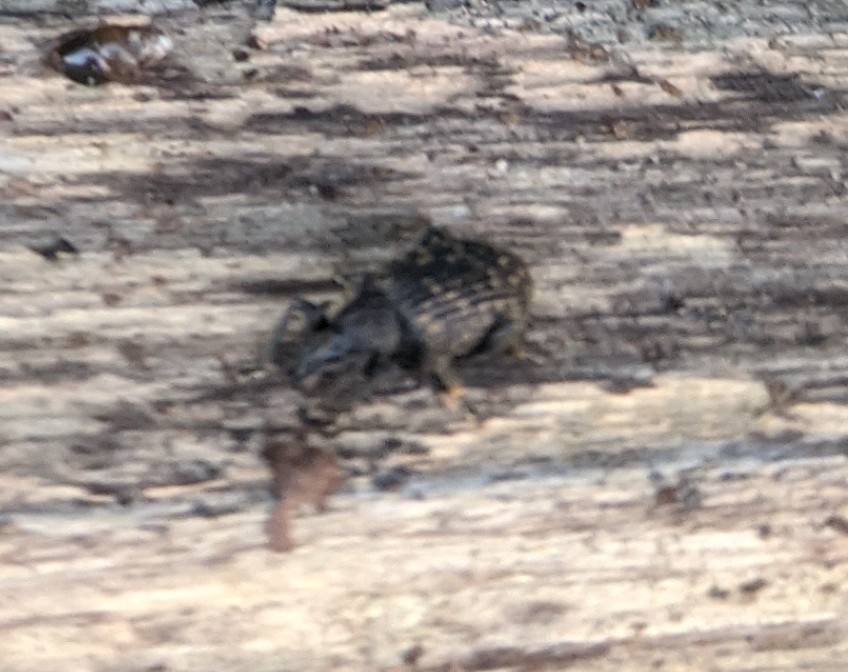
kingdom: Animalia
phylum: Arthropoda
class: Insecta
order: Coleoptera
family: Curculionidae
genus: Otiorhynchus
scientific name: Otiorhynchus sulcatus
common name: Black vine weevil
